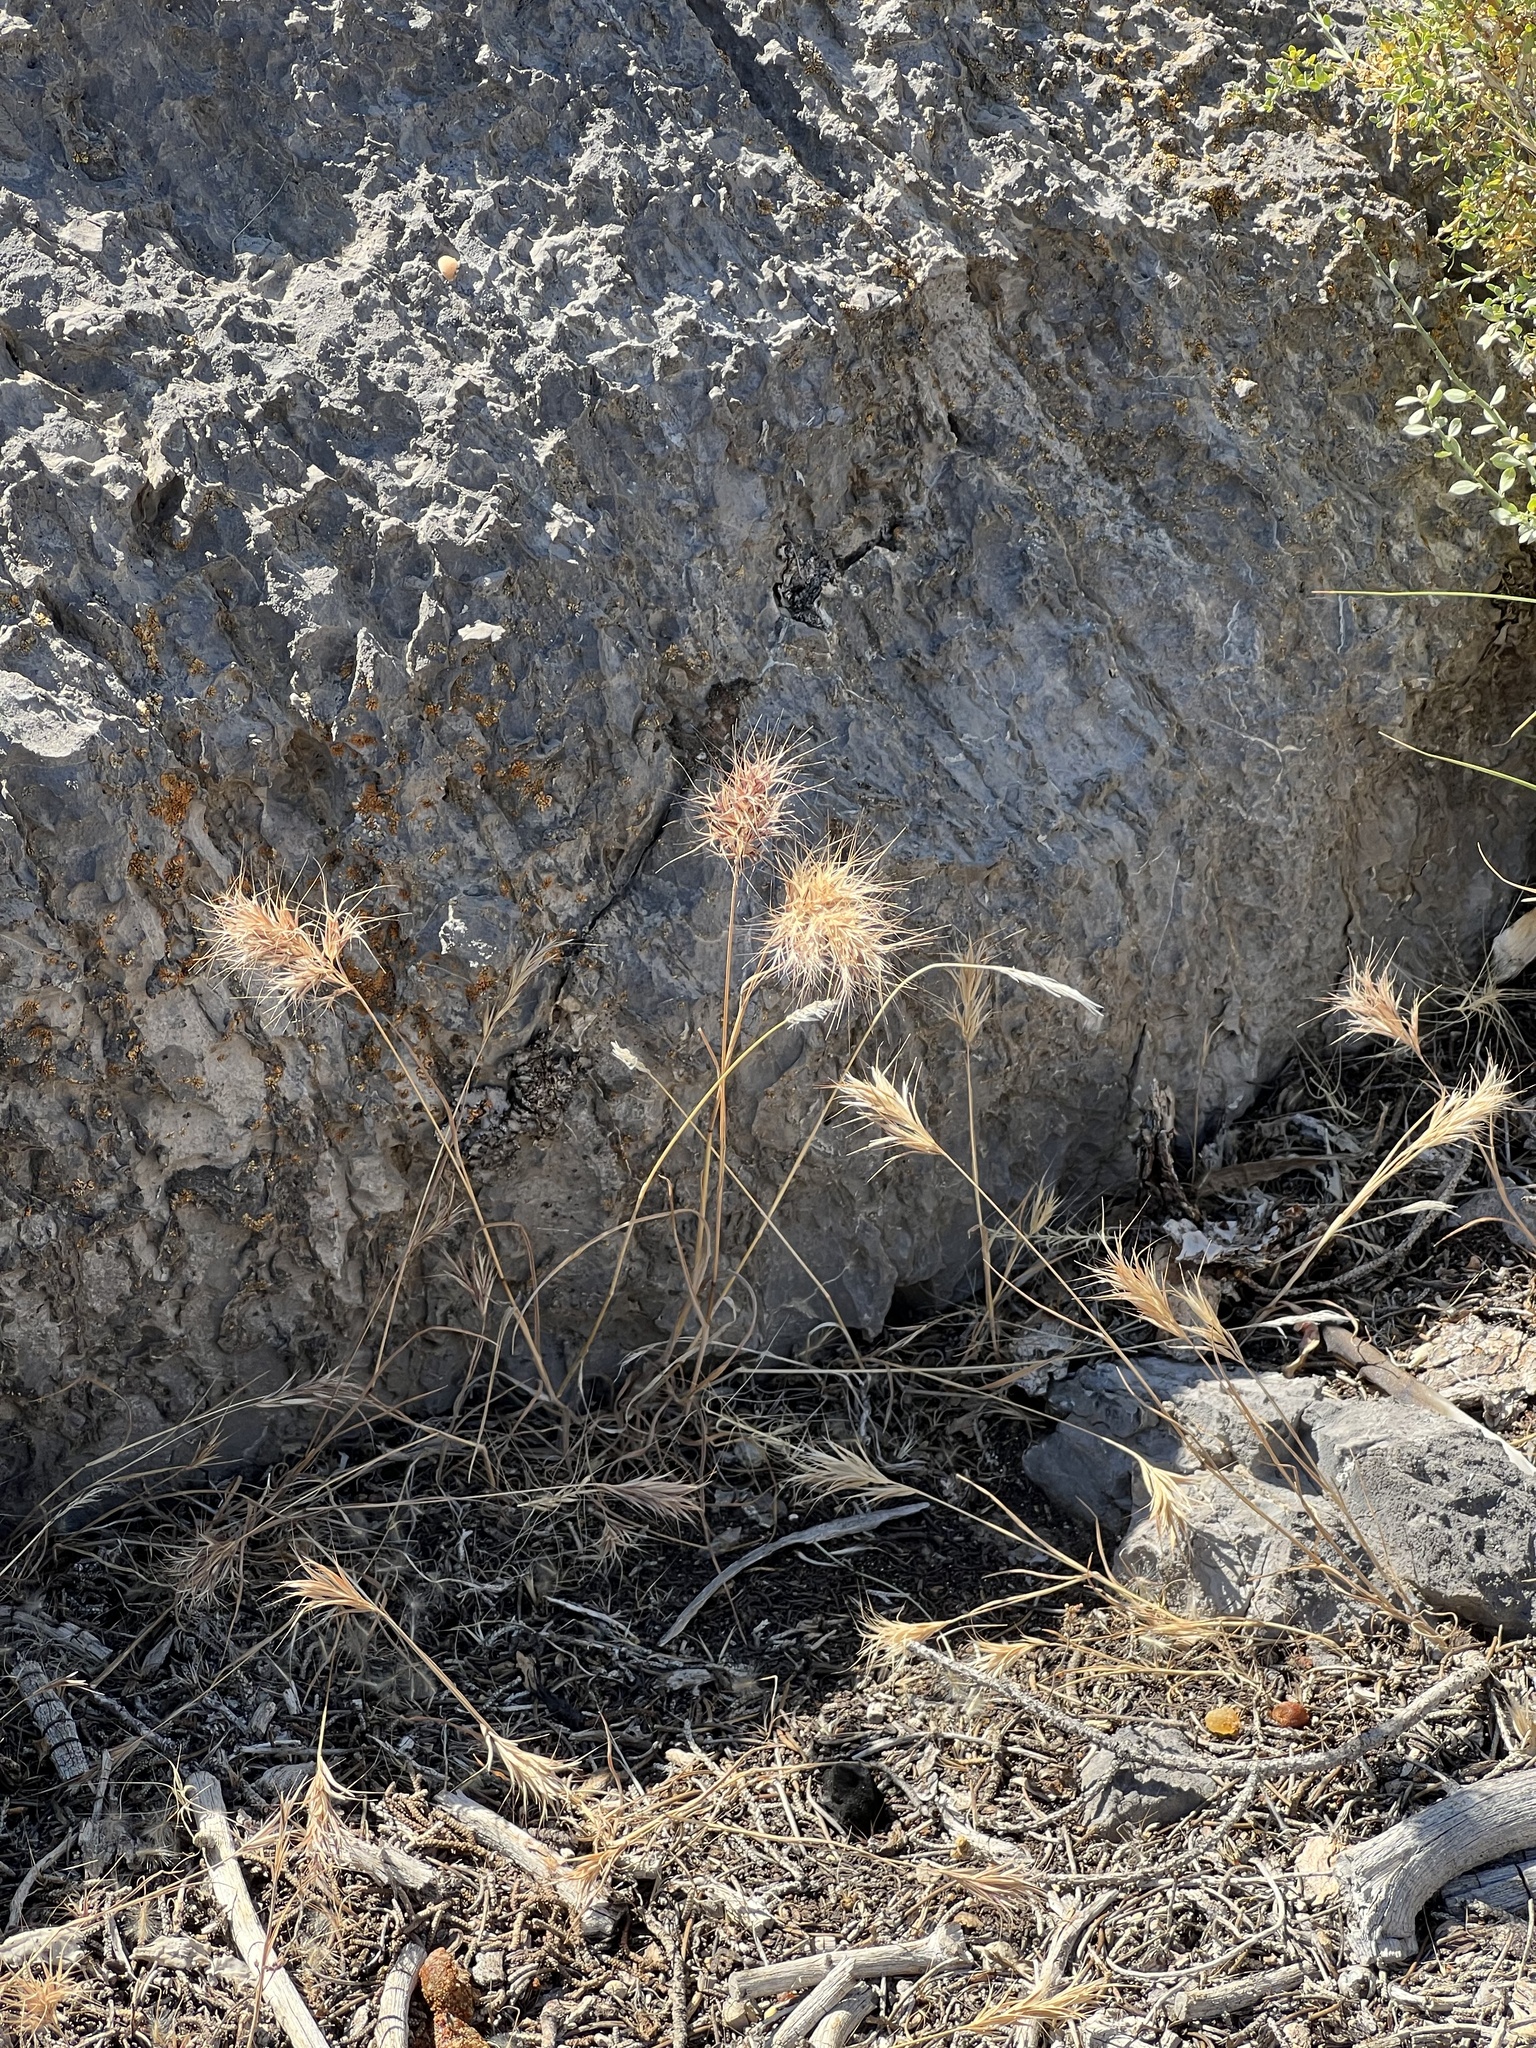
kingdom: Plantae
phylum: Tracheophyta
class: Liliopsida
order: Poales
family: Poaceae
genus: Bromus
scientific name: Bromus rubens
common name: Red brome
